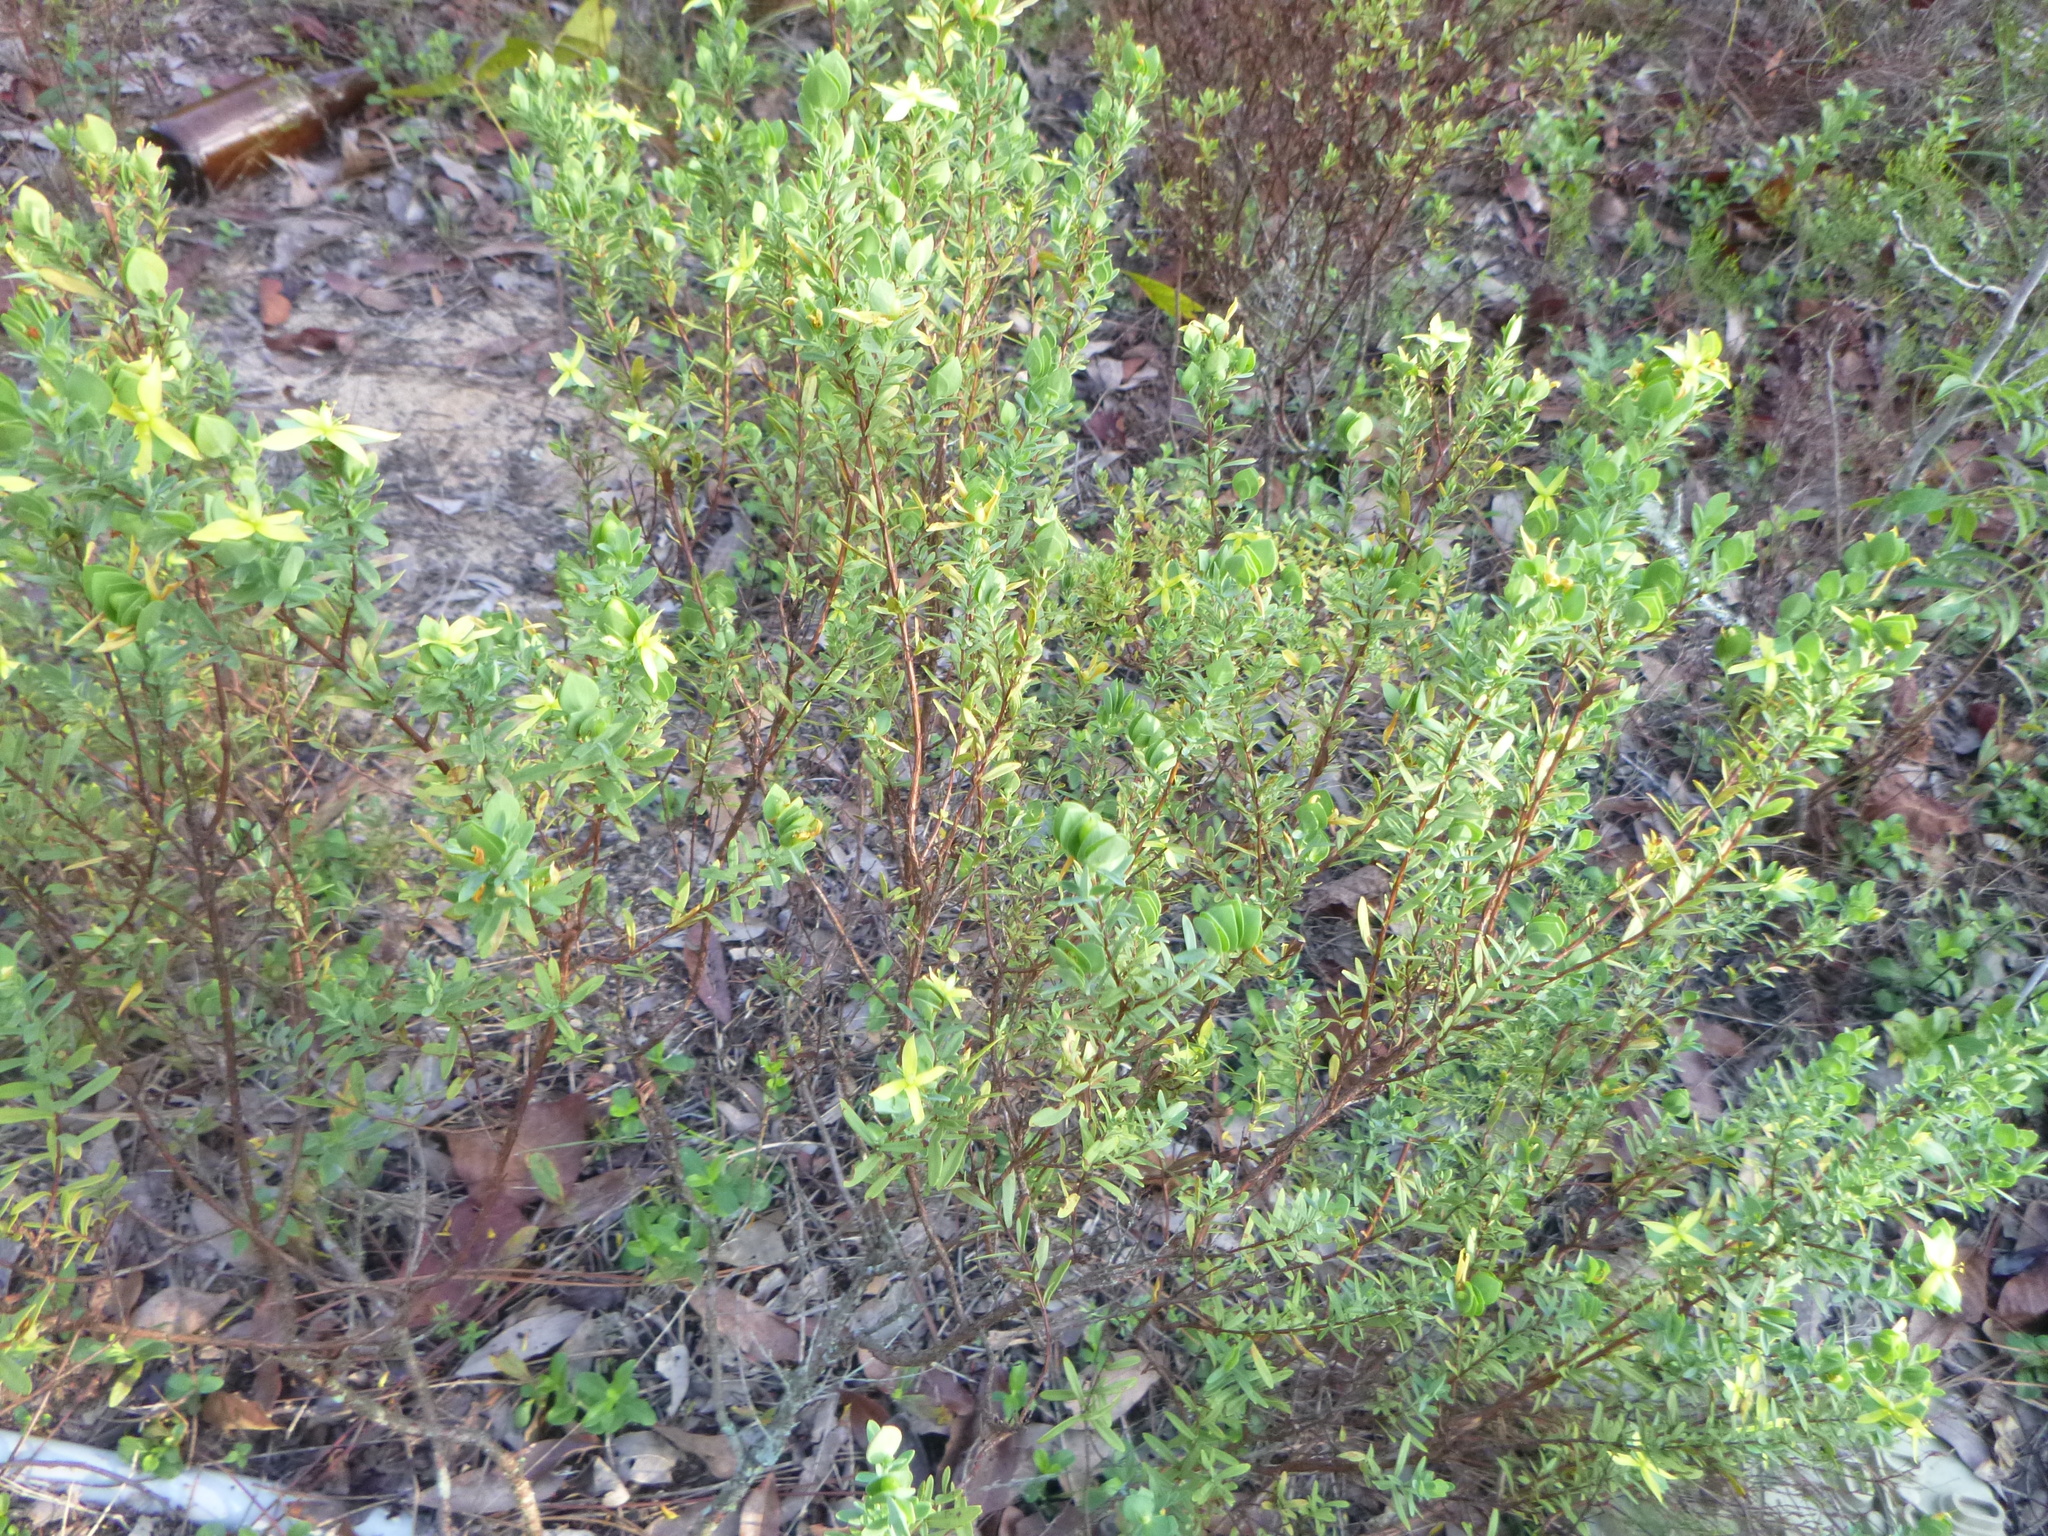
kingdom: Plantae
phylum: Tracheophyta
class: Magnoliopsida
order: Malpighiales
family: Hypericaceae
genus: Hypericum
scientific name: Hypericum hypericoides
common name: St. andrew's cross
